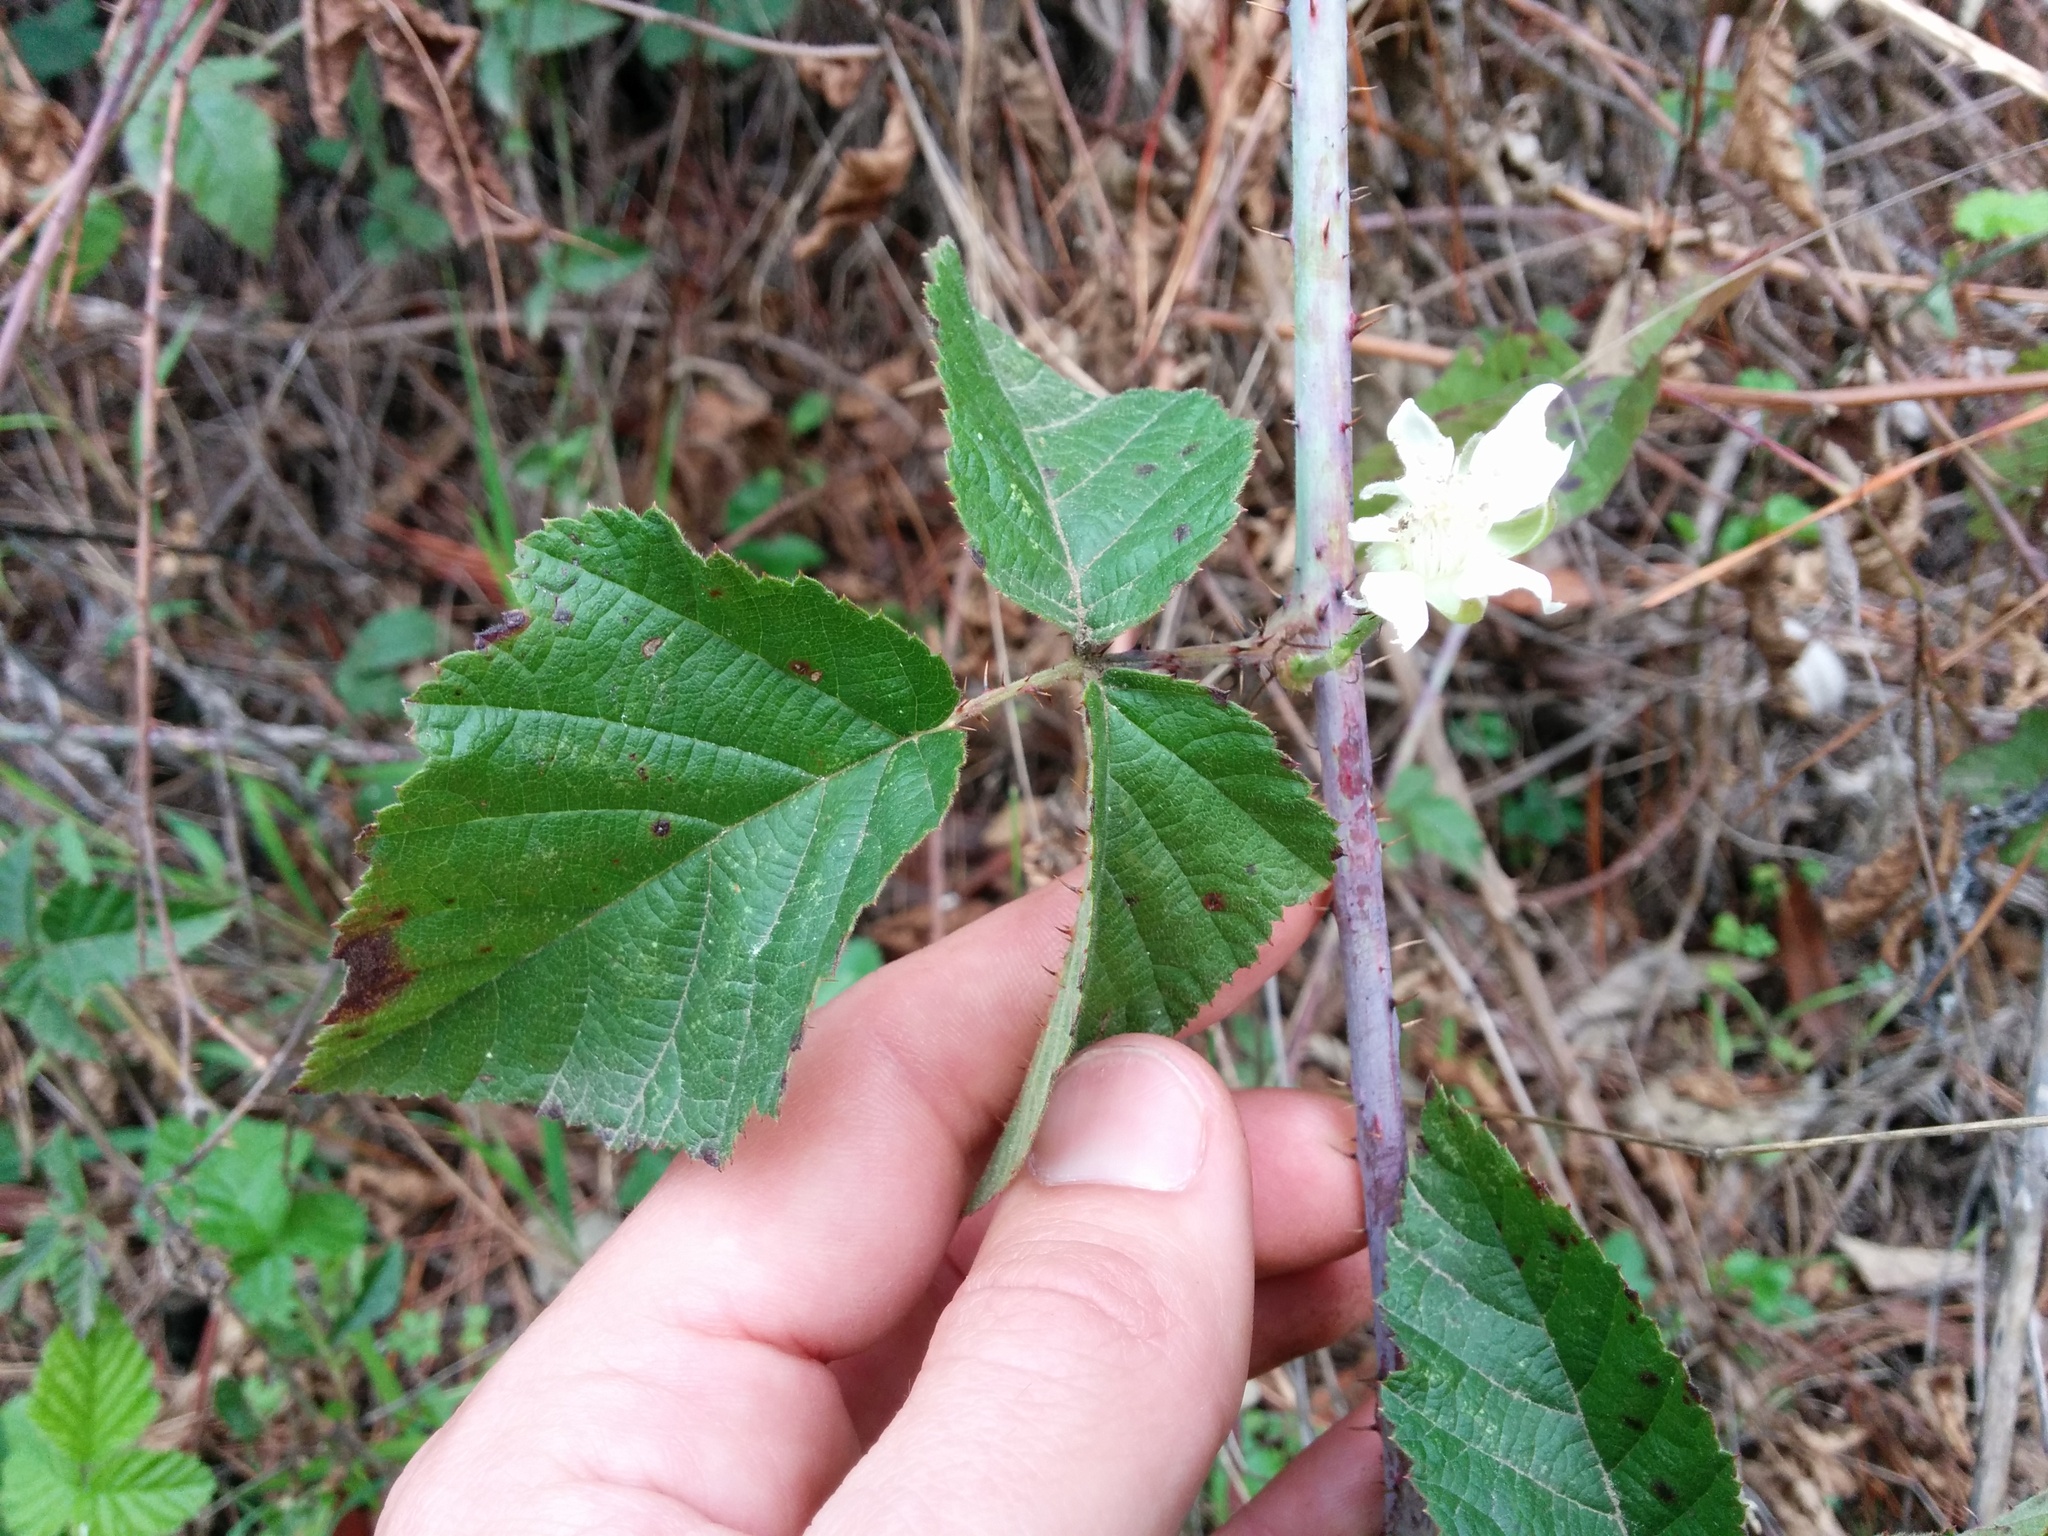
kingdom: Plantae
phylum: Tracheophyta
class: Magnoliopsida
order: Rosales
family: Rosaceae
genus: Rubus
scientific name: Rubus ursinus
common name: Pacific blackberry
